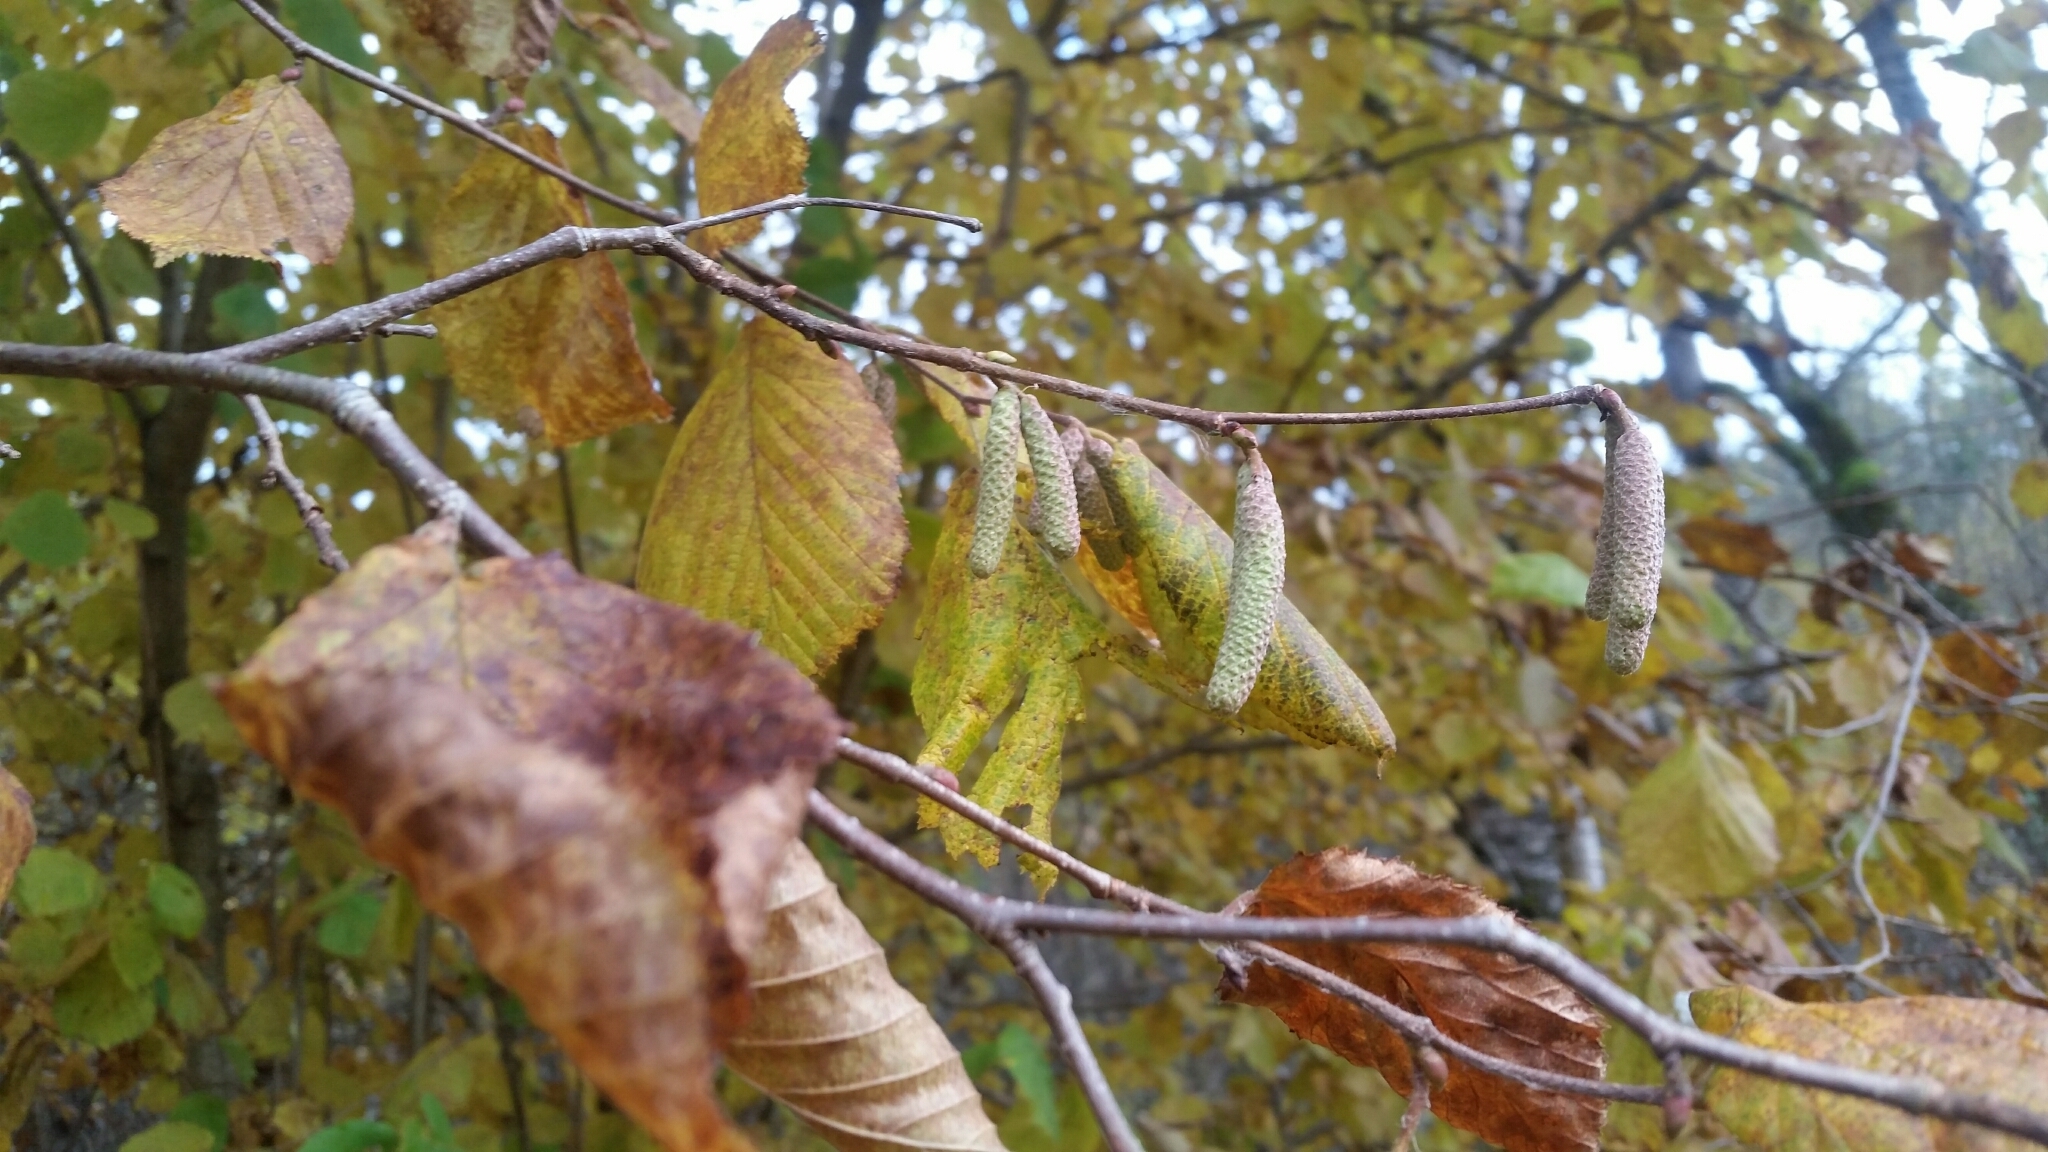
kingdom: Plantae
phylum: Tracheophyta
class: Magnoliopsida
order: Fagales
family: Betulaceae
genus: Corylus
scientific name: Corylus avellana
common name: European hazel
